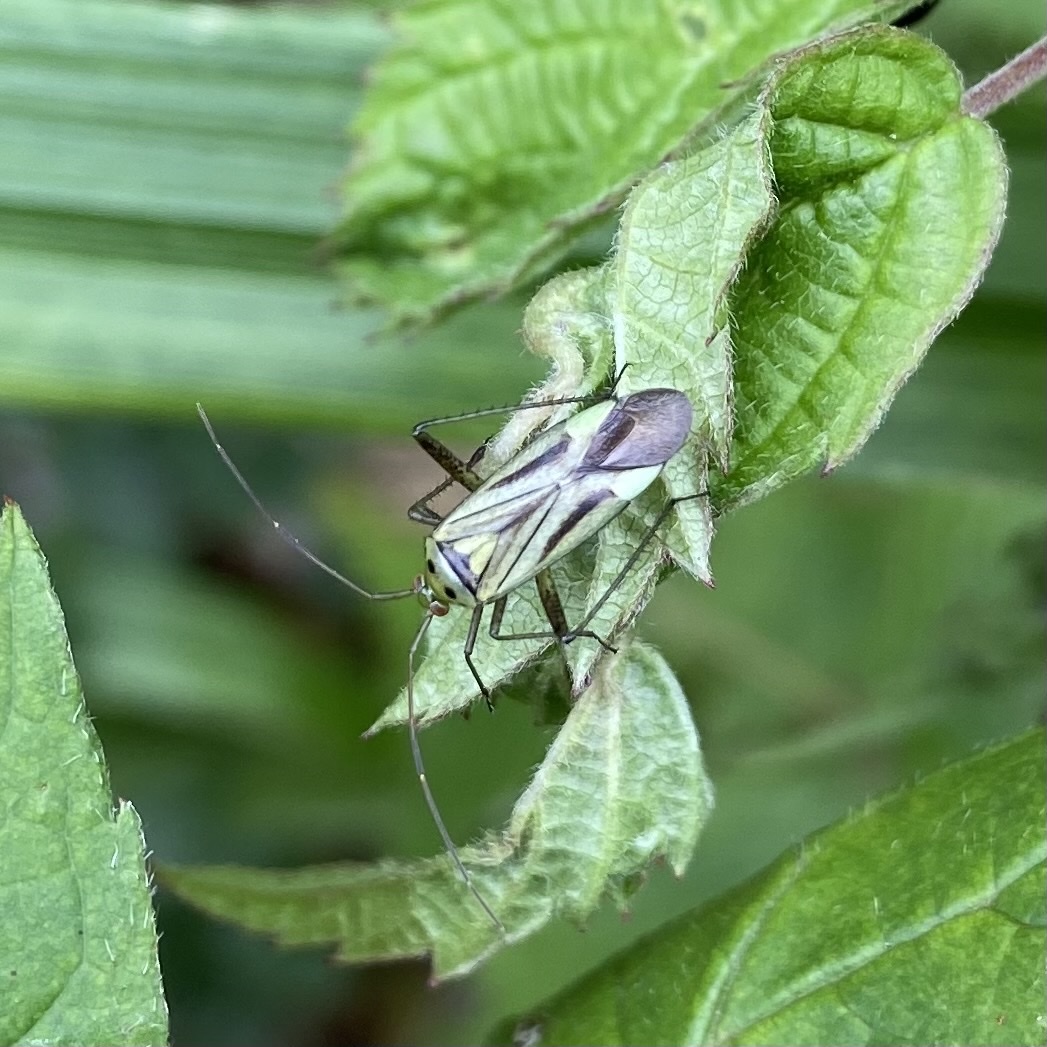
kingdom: Animalia
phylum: Arthropoda
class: Insecta
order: Hemiptera
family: Miridae
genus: Adelphocoris
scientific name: Adelphocoris quadripunctatus
